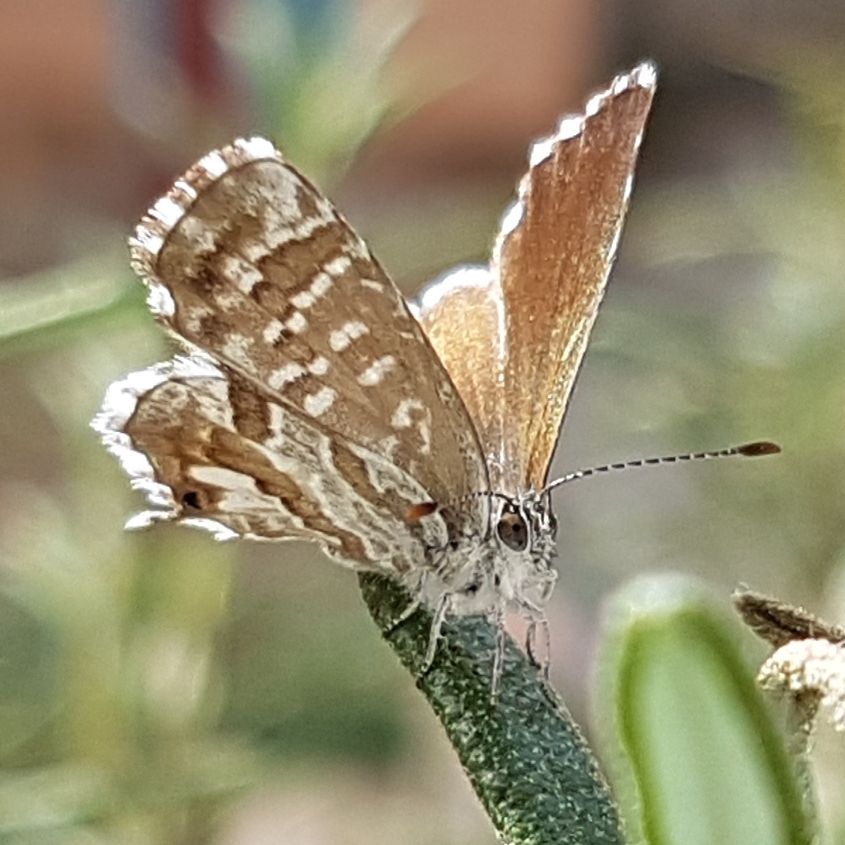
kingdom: Animalia
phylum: Arthropoda
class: Insecta
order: Lepidoptera
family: Lycaenidae
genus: Cacyreus
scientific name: Cacyreus marshalli
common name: Geranium bronze
